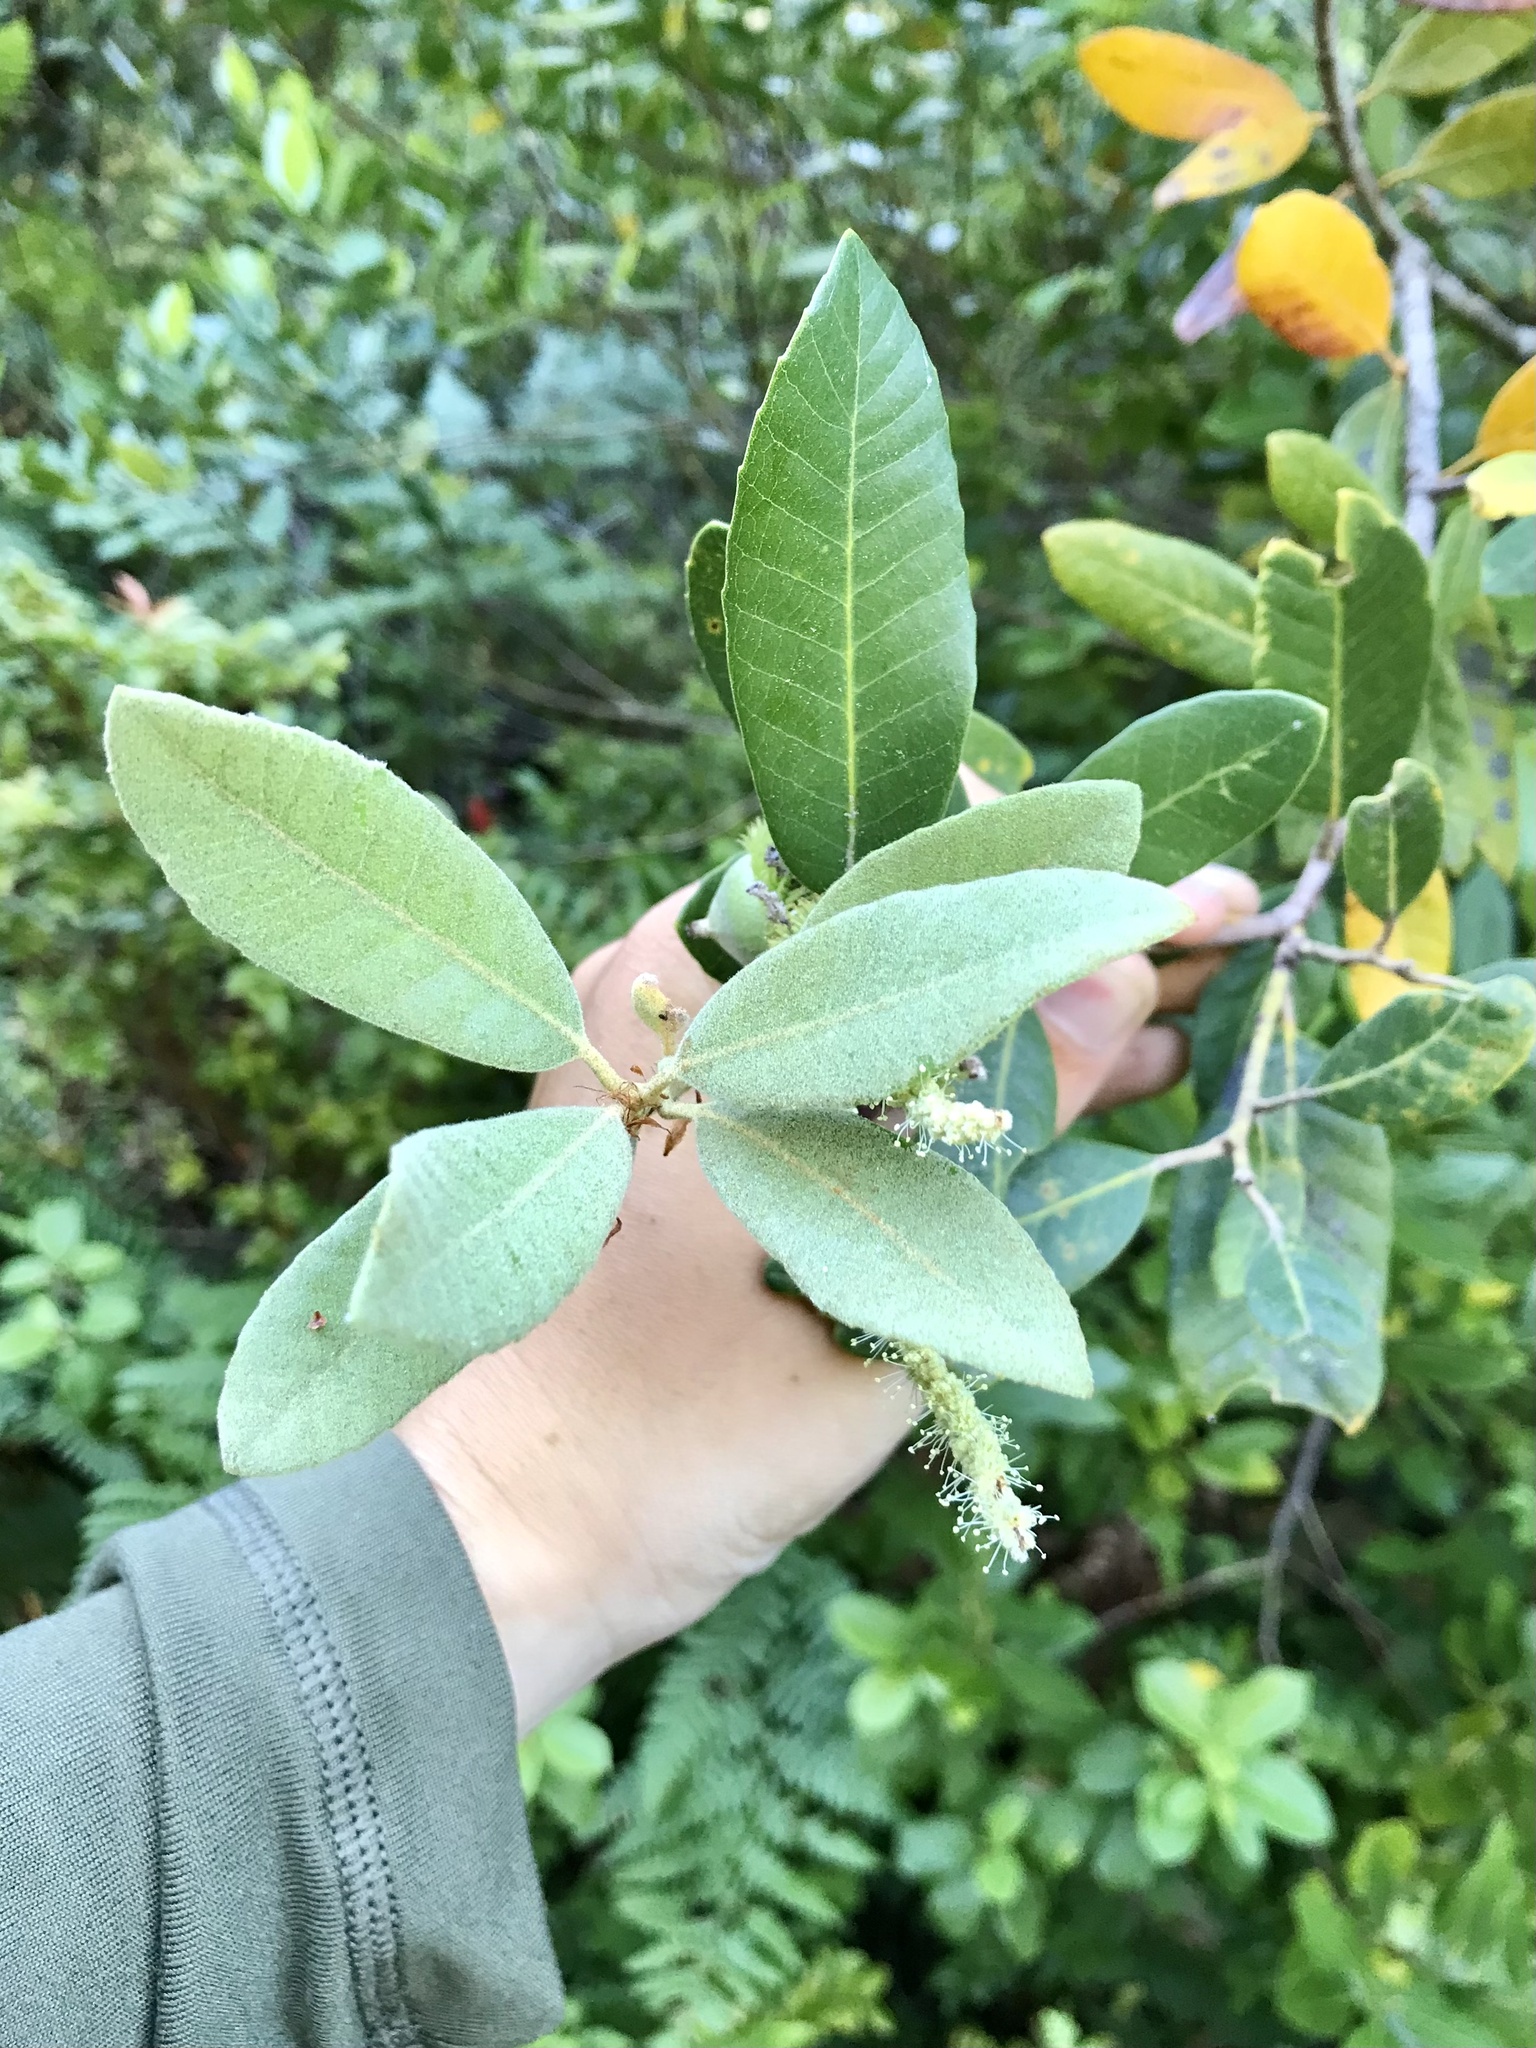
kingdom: Plantae
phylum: Tracheophyta
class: Magnoliopsida
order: Fagales
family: Fagaceae
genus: Notholithocarpus
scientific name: Notholithocarpus densiflorus
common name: Tan bark oak
